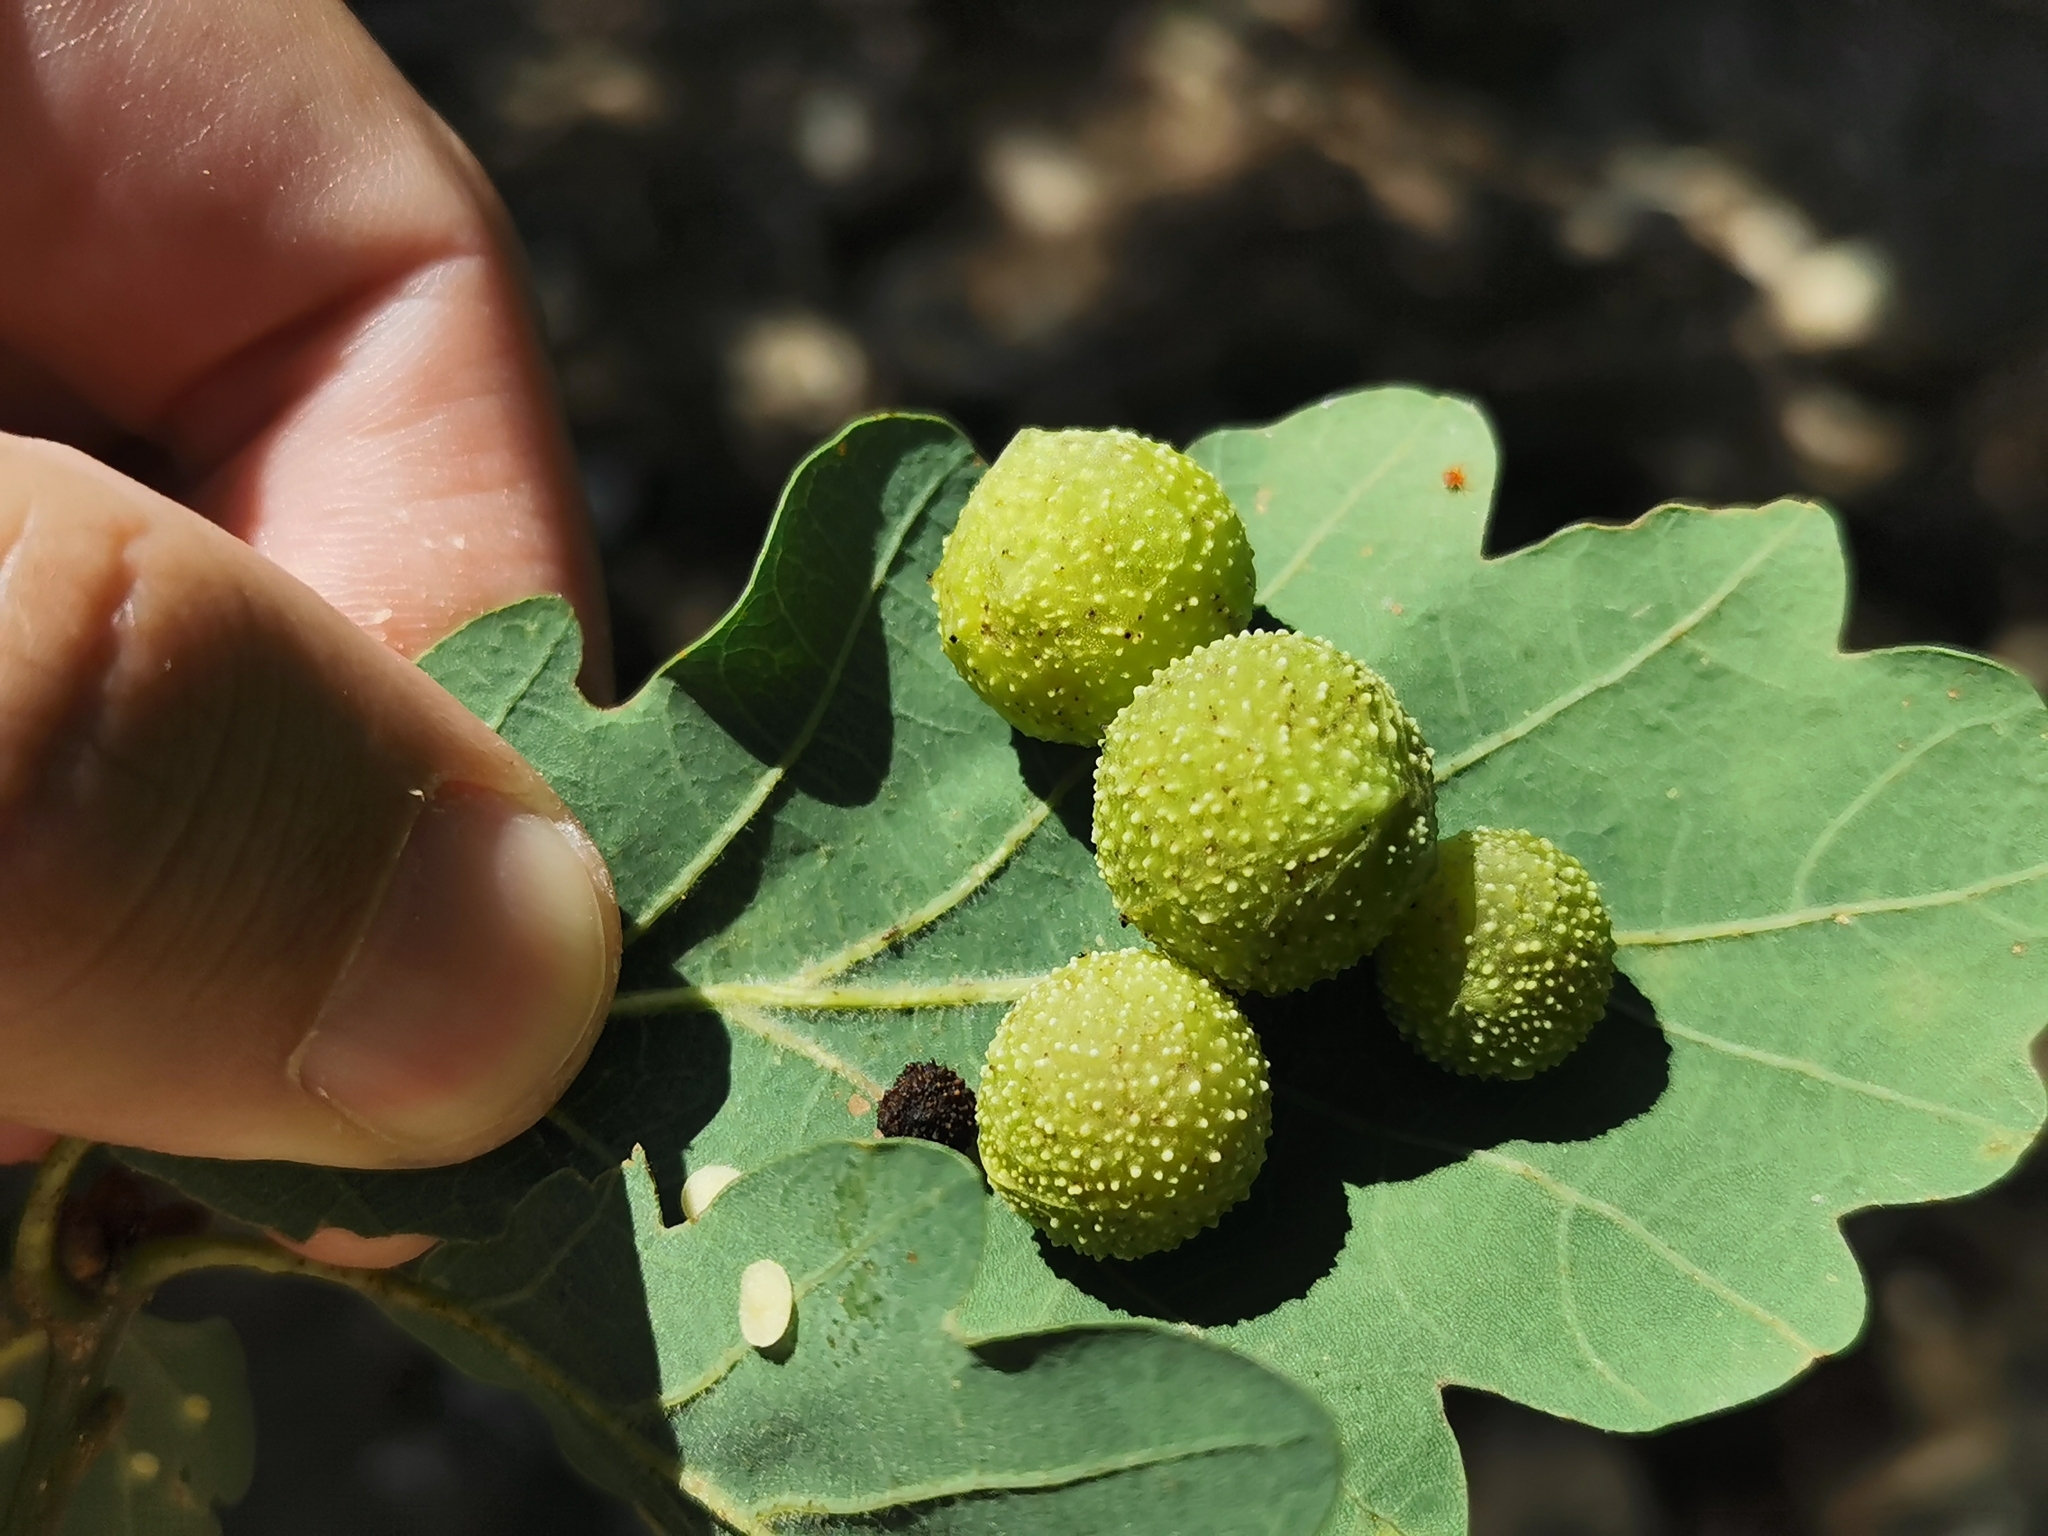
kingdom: Animalia
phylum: Arthropoda
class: Insecta
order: Hymenoptera
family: Cynipidae
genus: Cynips
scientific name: Cynips quercusfolii
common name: Cherry gall
